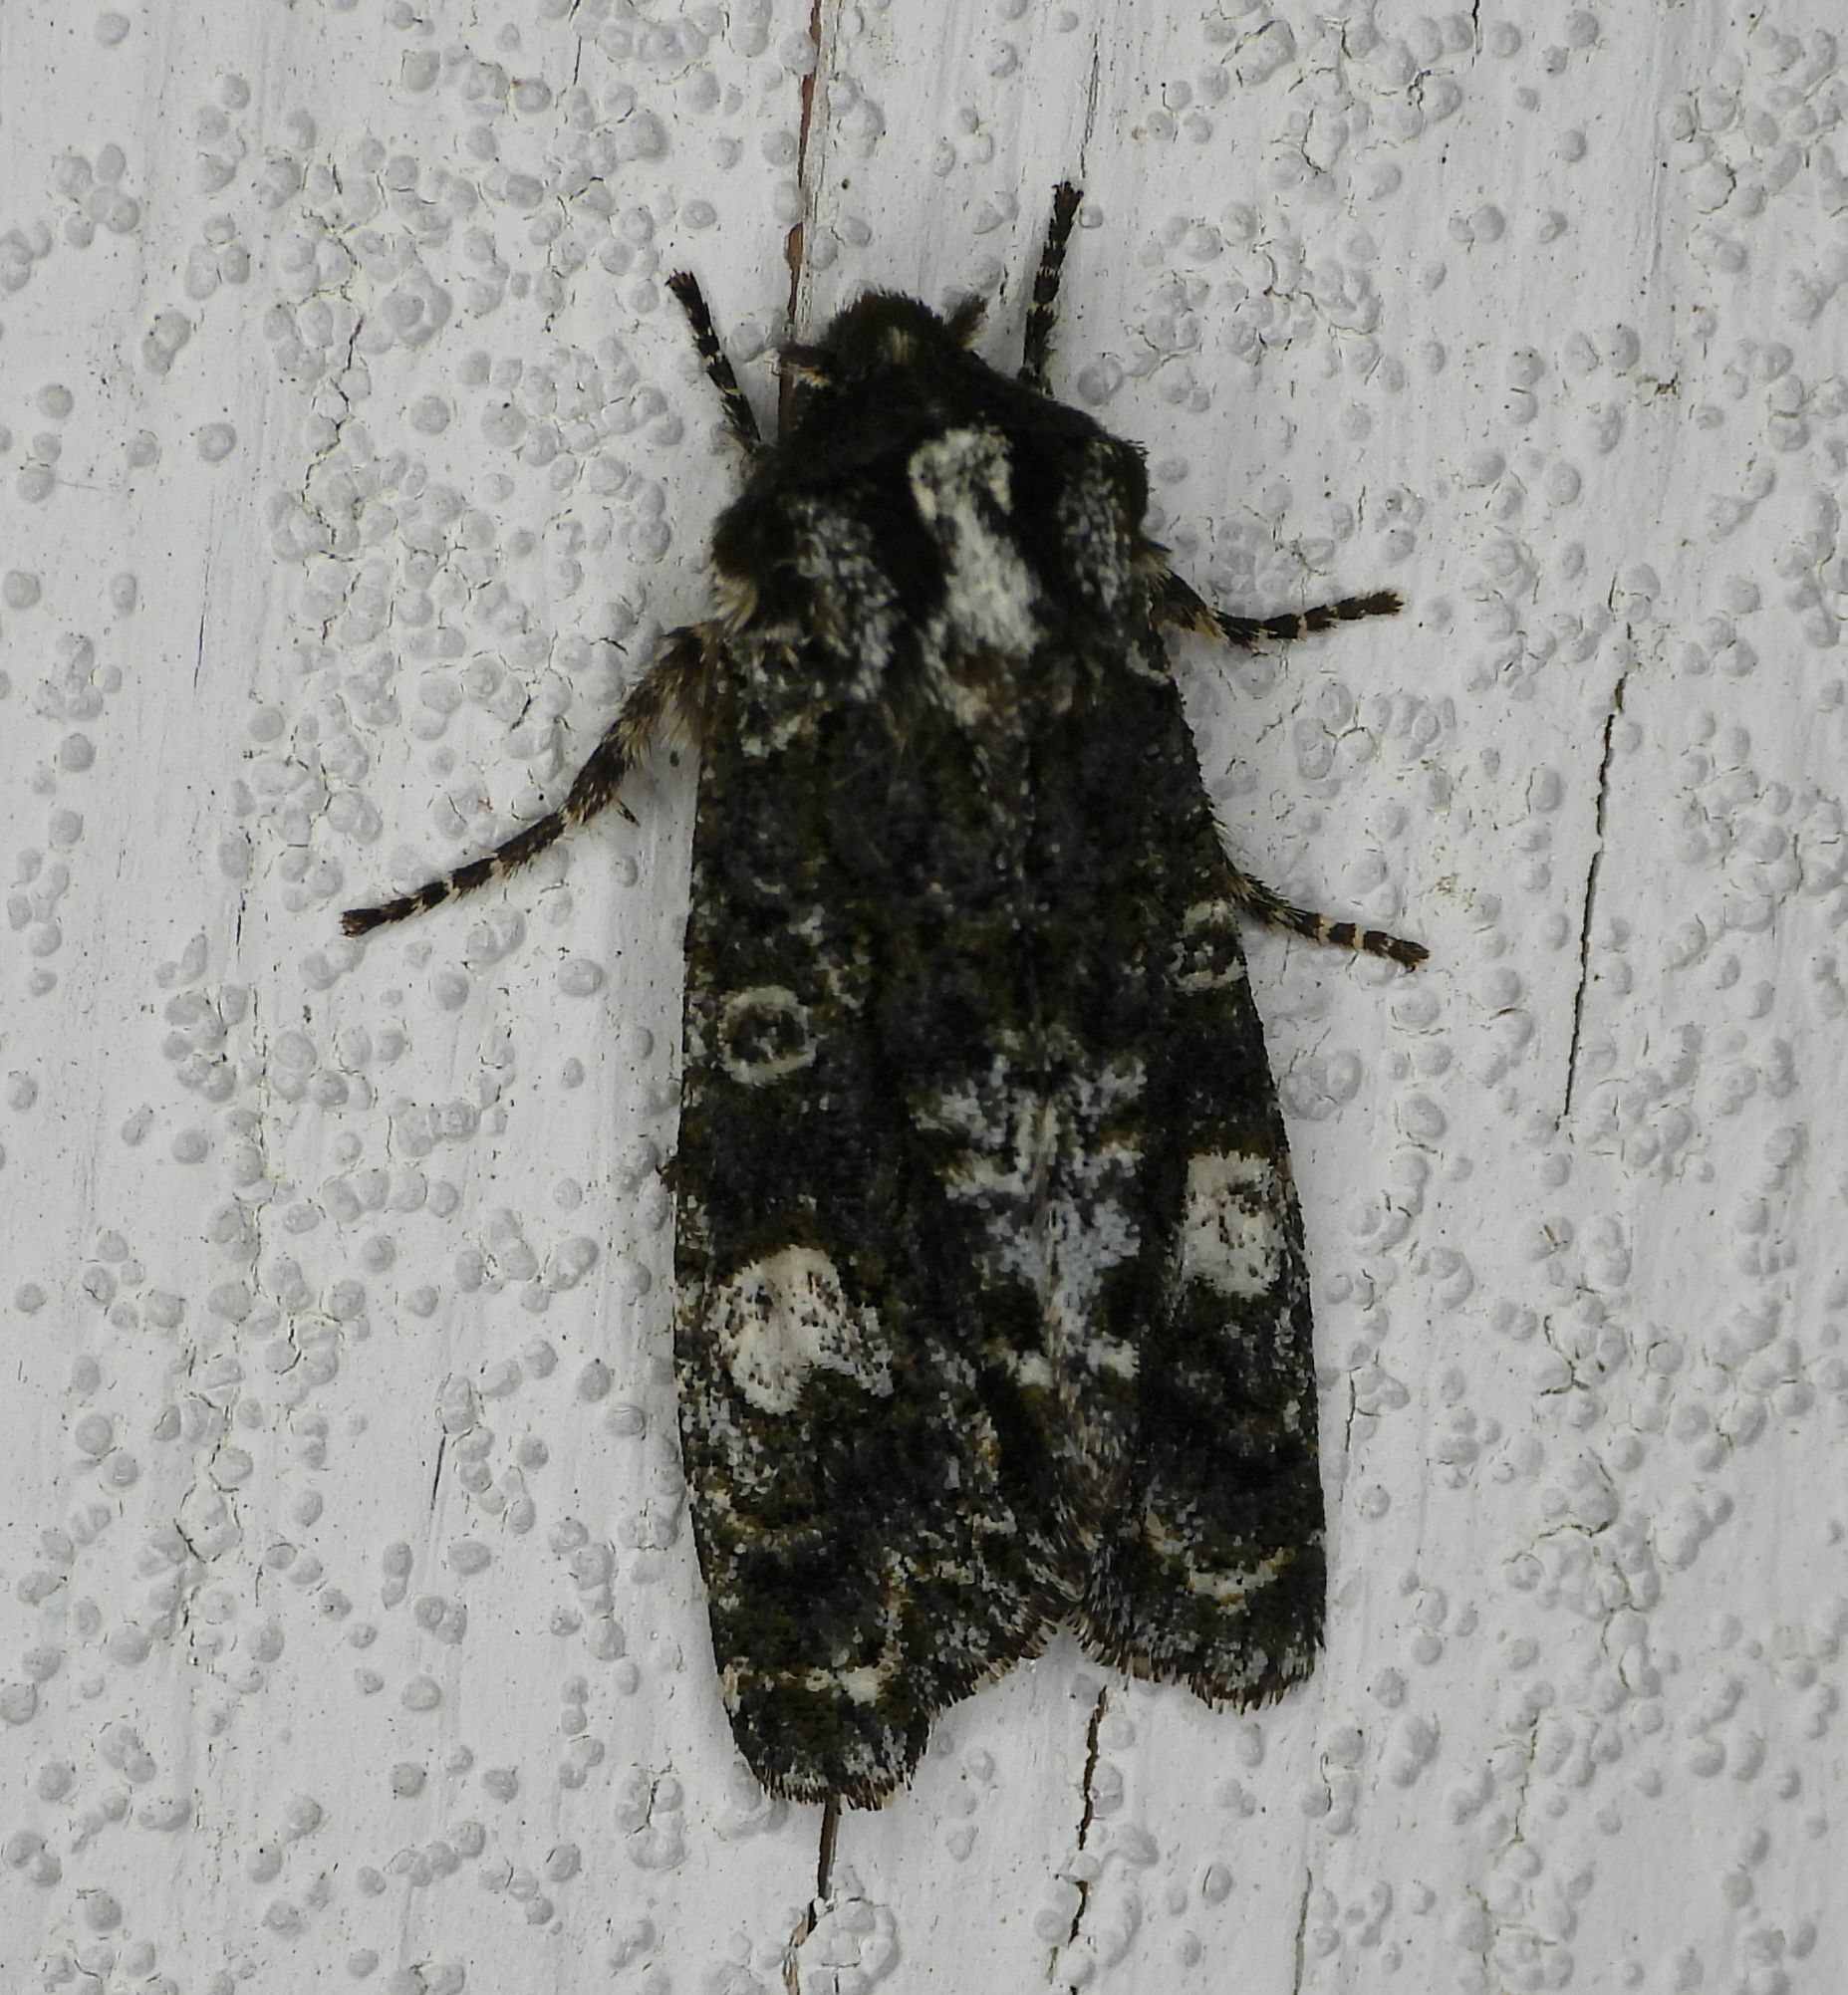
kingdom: Animalia
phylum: Arthropoda
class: Insecta
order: Lepidoptera
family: Noctuidae
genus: Psaphida
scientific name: Psaphida grotei
